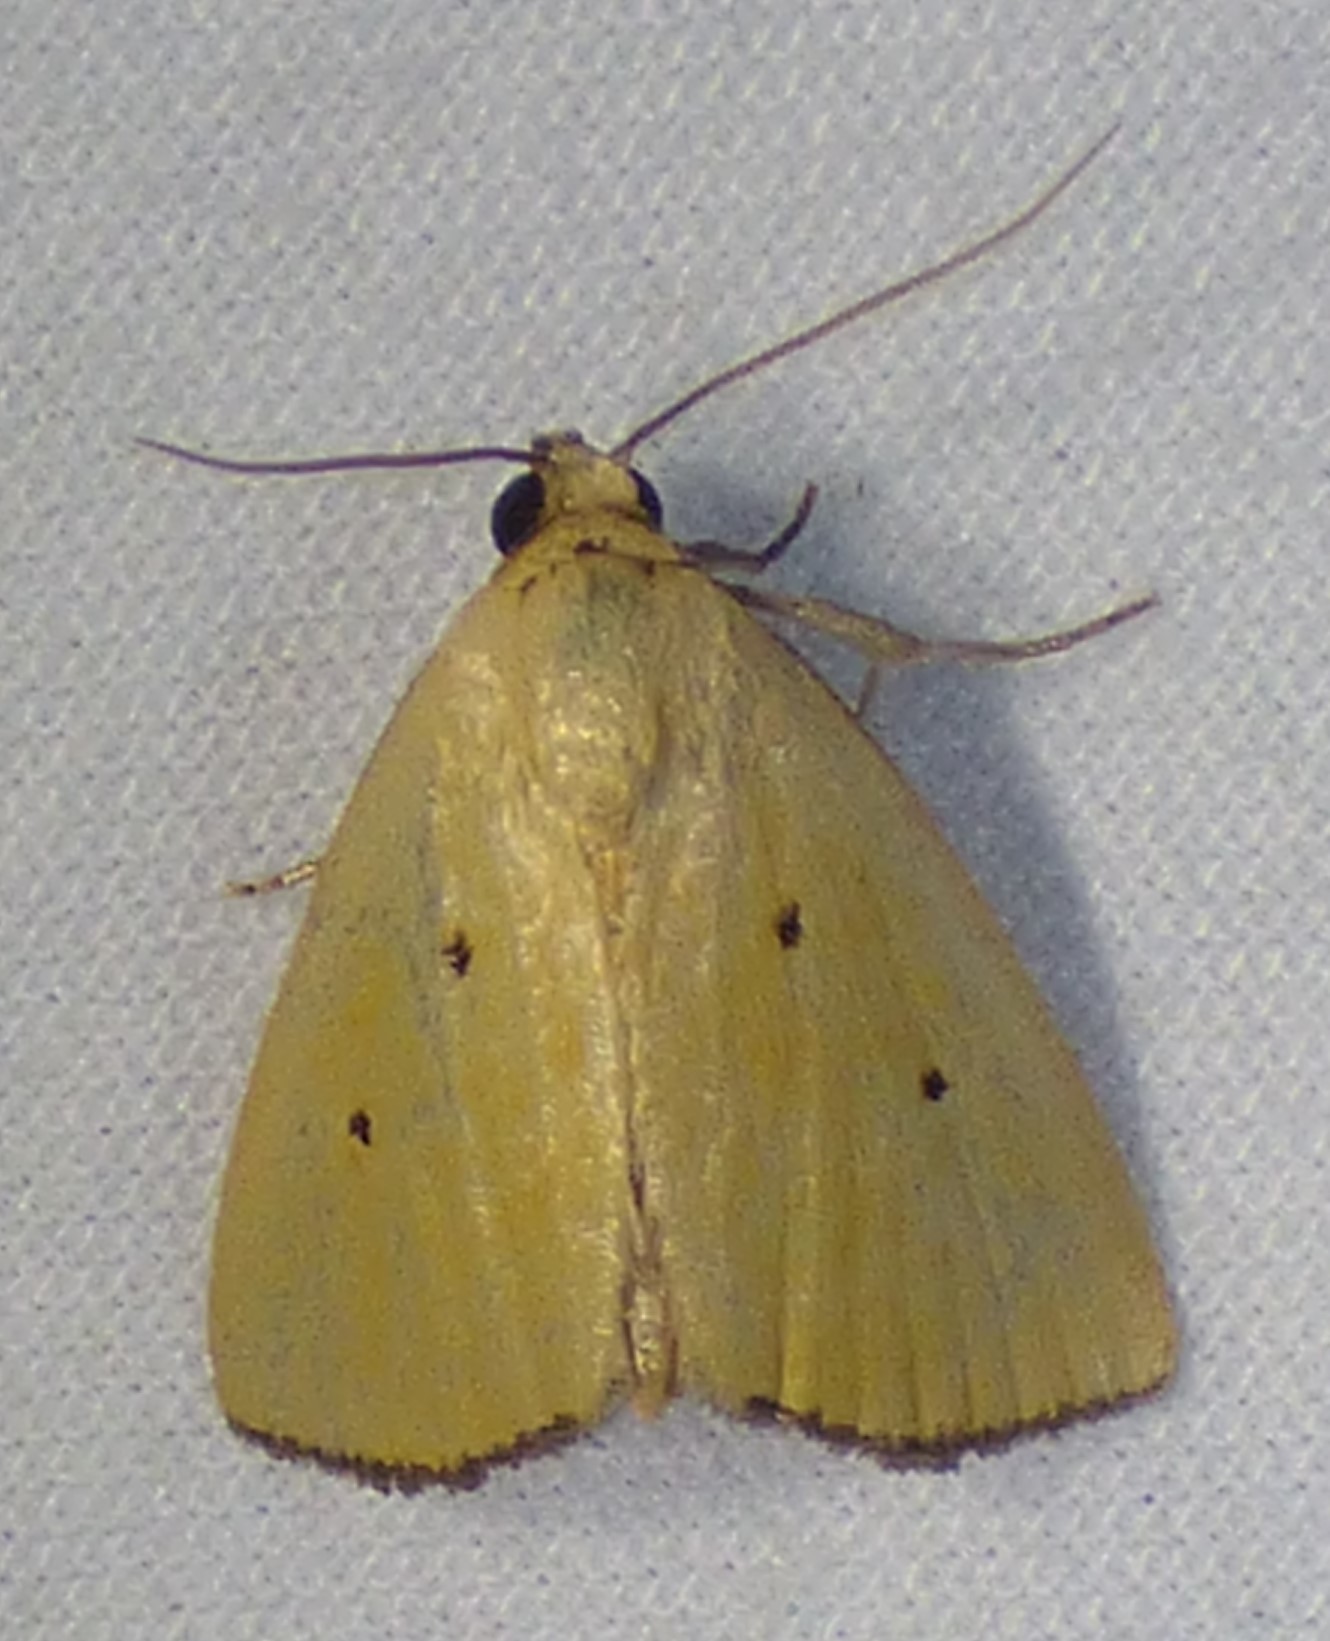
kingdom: Animalia
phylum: Arthropoda
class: Insecta
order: Lepidoptera
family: Noctuidae
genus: Marimatha
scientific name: Marimatha nigrofimbria
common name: Black-bordered lemon moth
